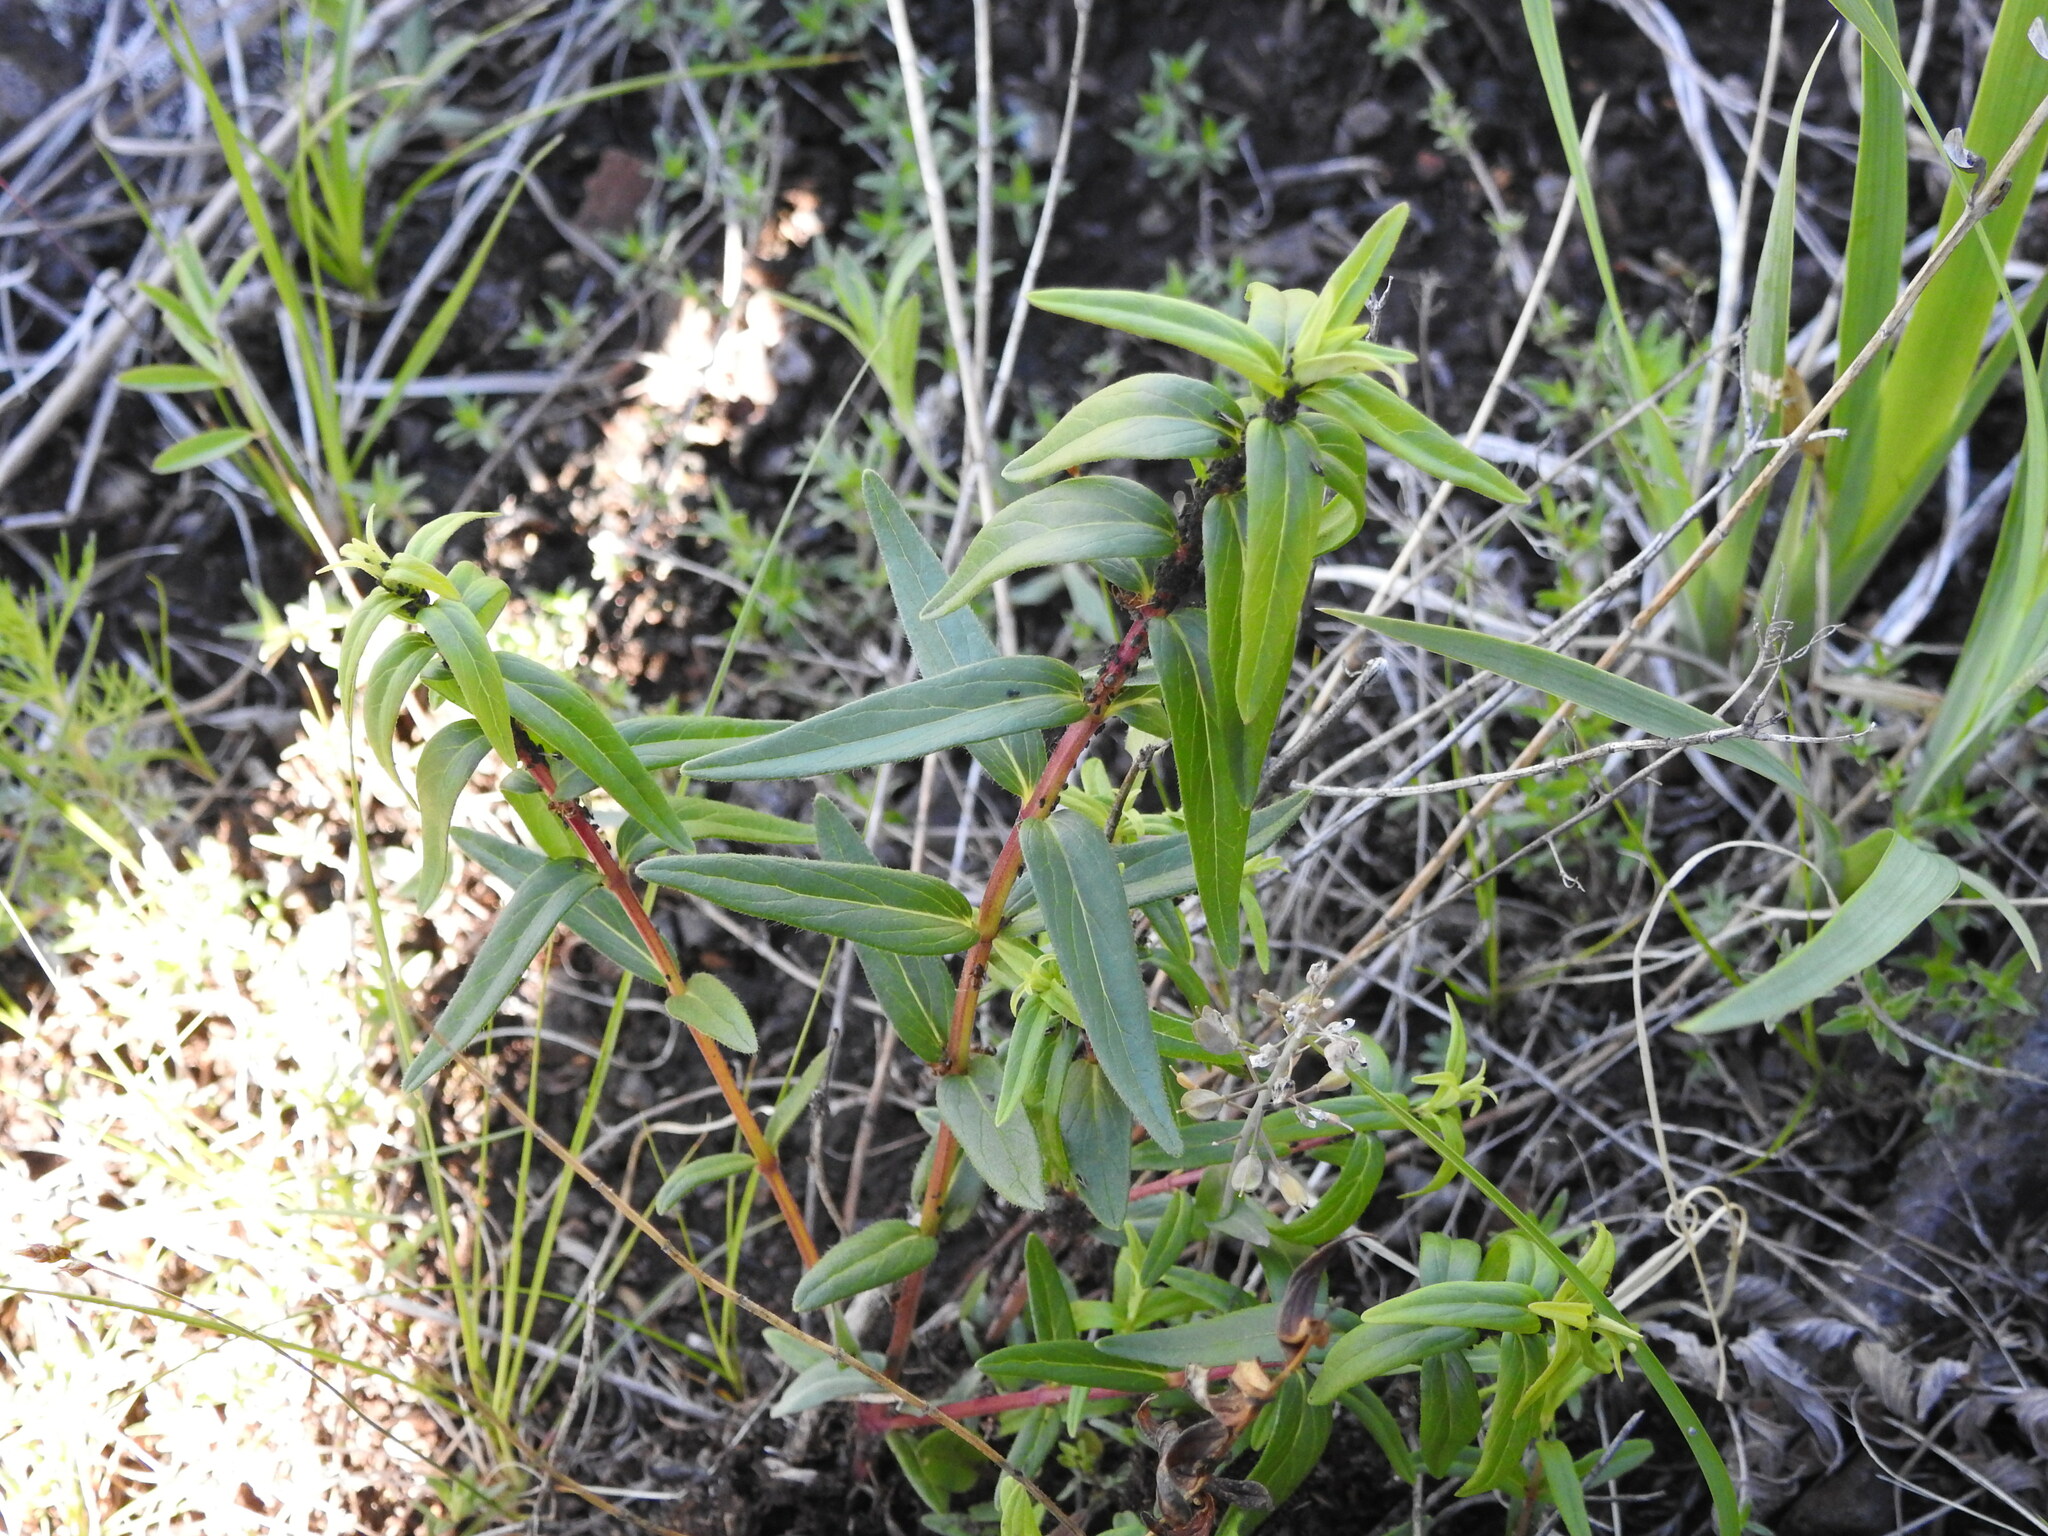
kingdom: Plantae
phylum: Tracheophyta
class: Magnoliopsida
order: Lamiales
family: Lamiaceae
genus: Scutellaria
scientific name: Scutellaria baicalensis
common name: Baikal skullcap
